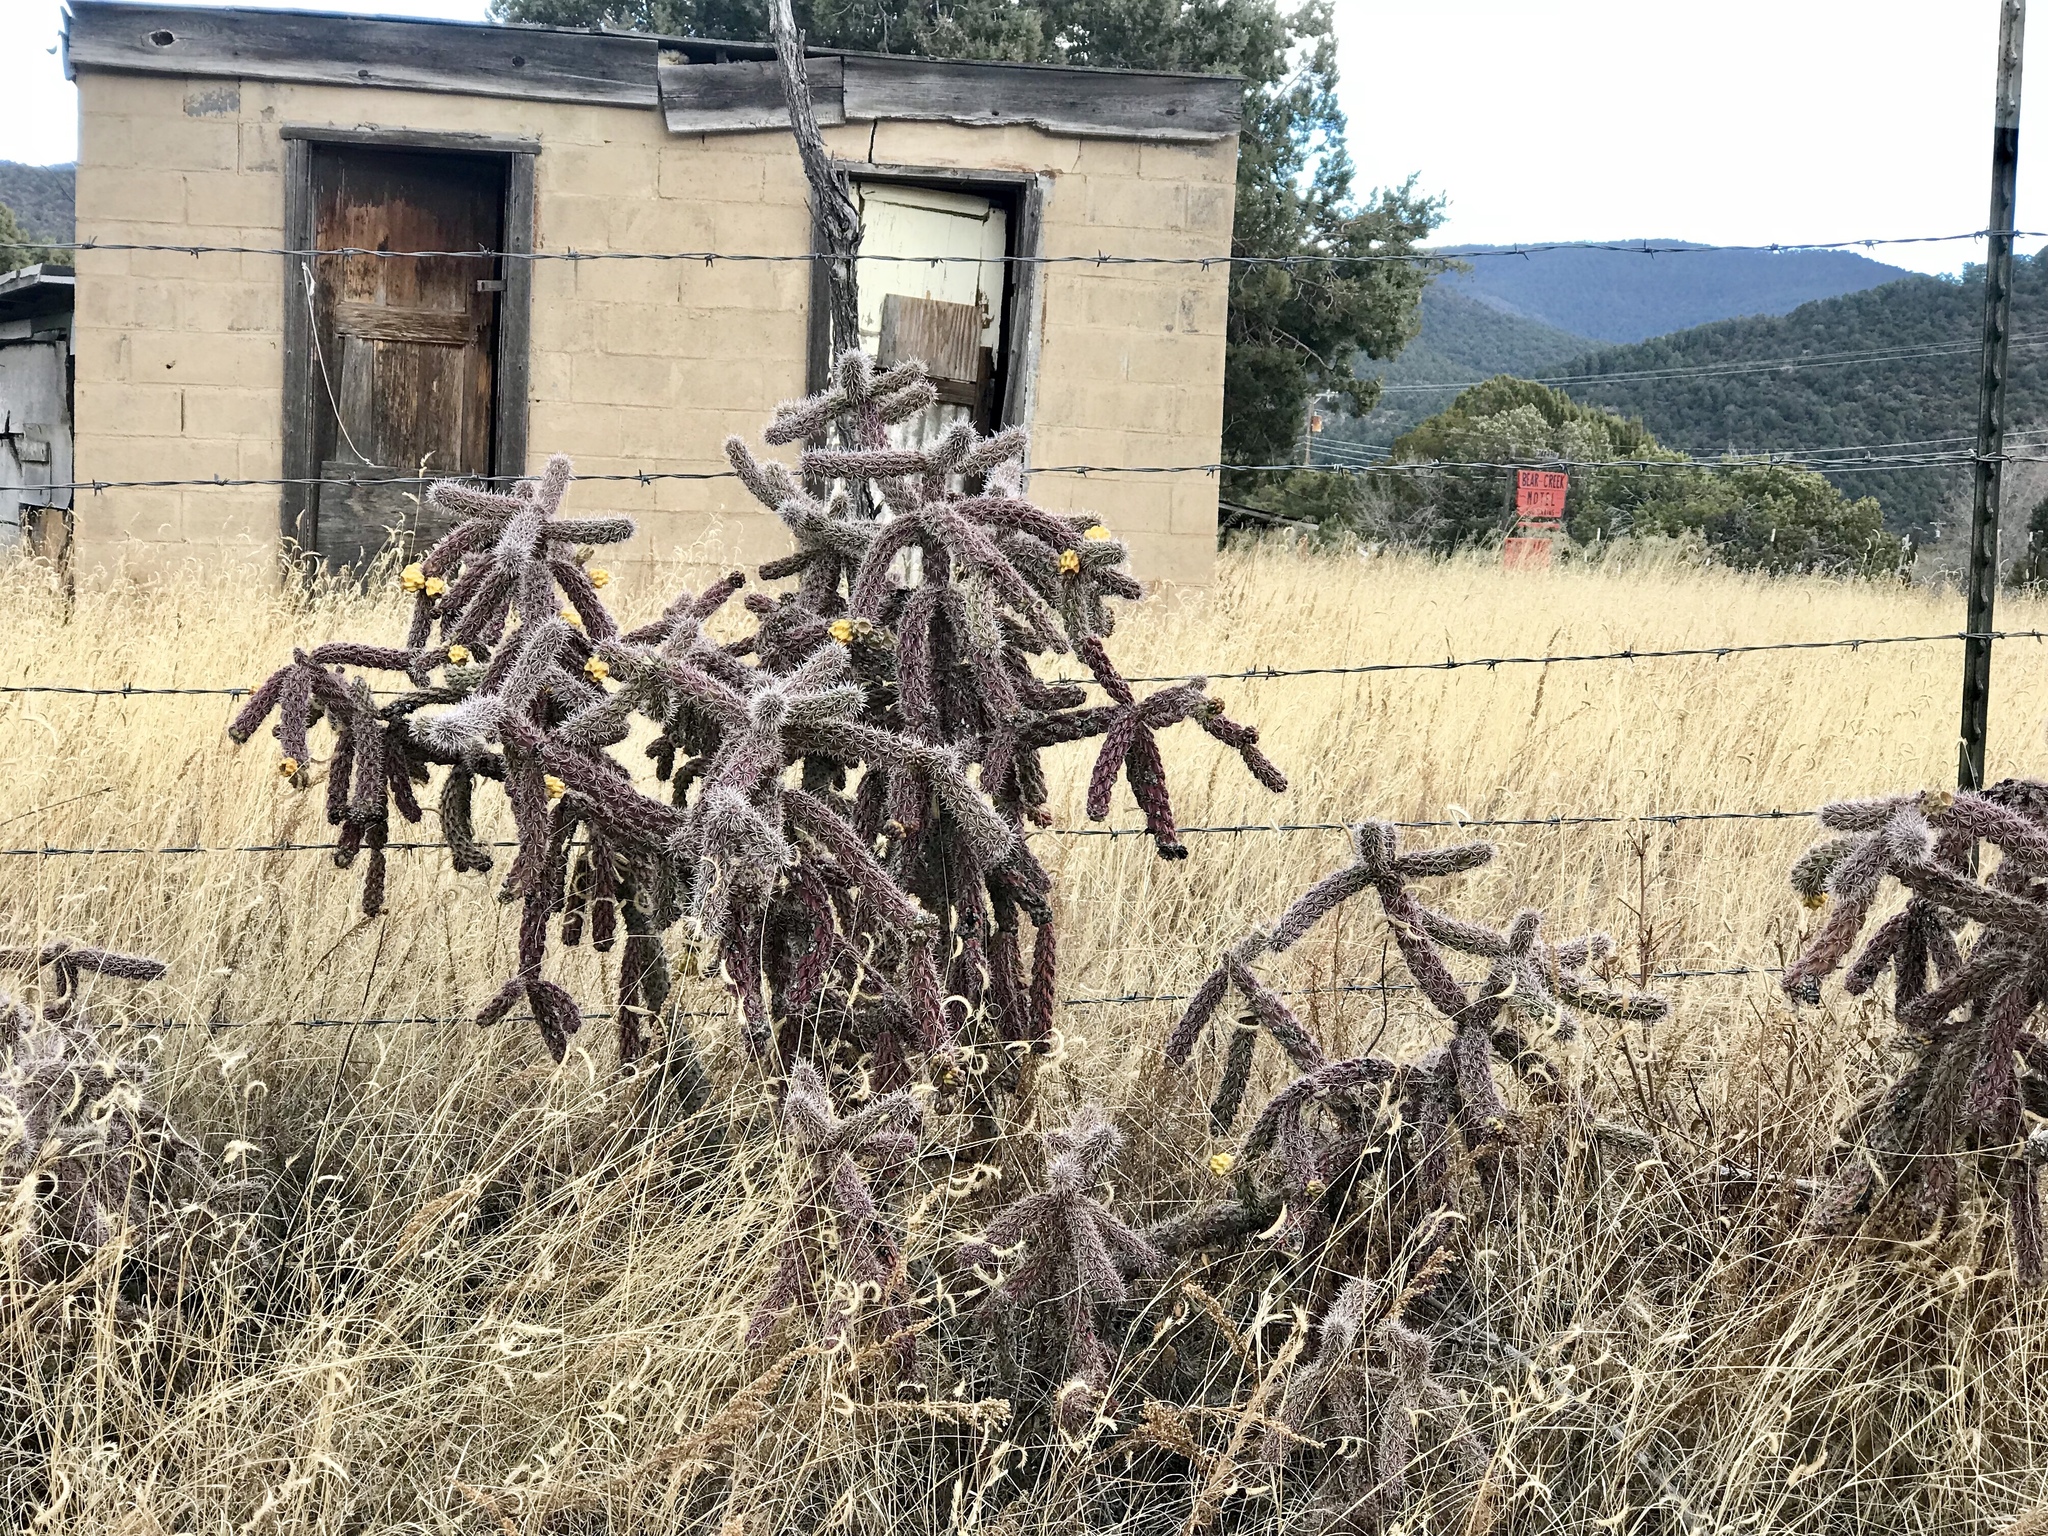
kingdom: Plantae
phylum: Tracheophyta
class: Magnoliopsida
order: Caryophyllales
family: Cactaceae
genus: Cylindropuntia
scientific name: Cylindropuntia imbricata
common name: Candelabrum cactus
